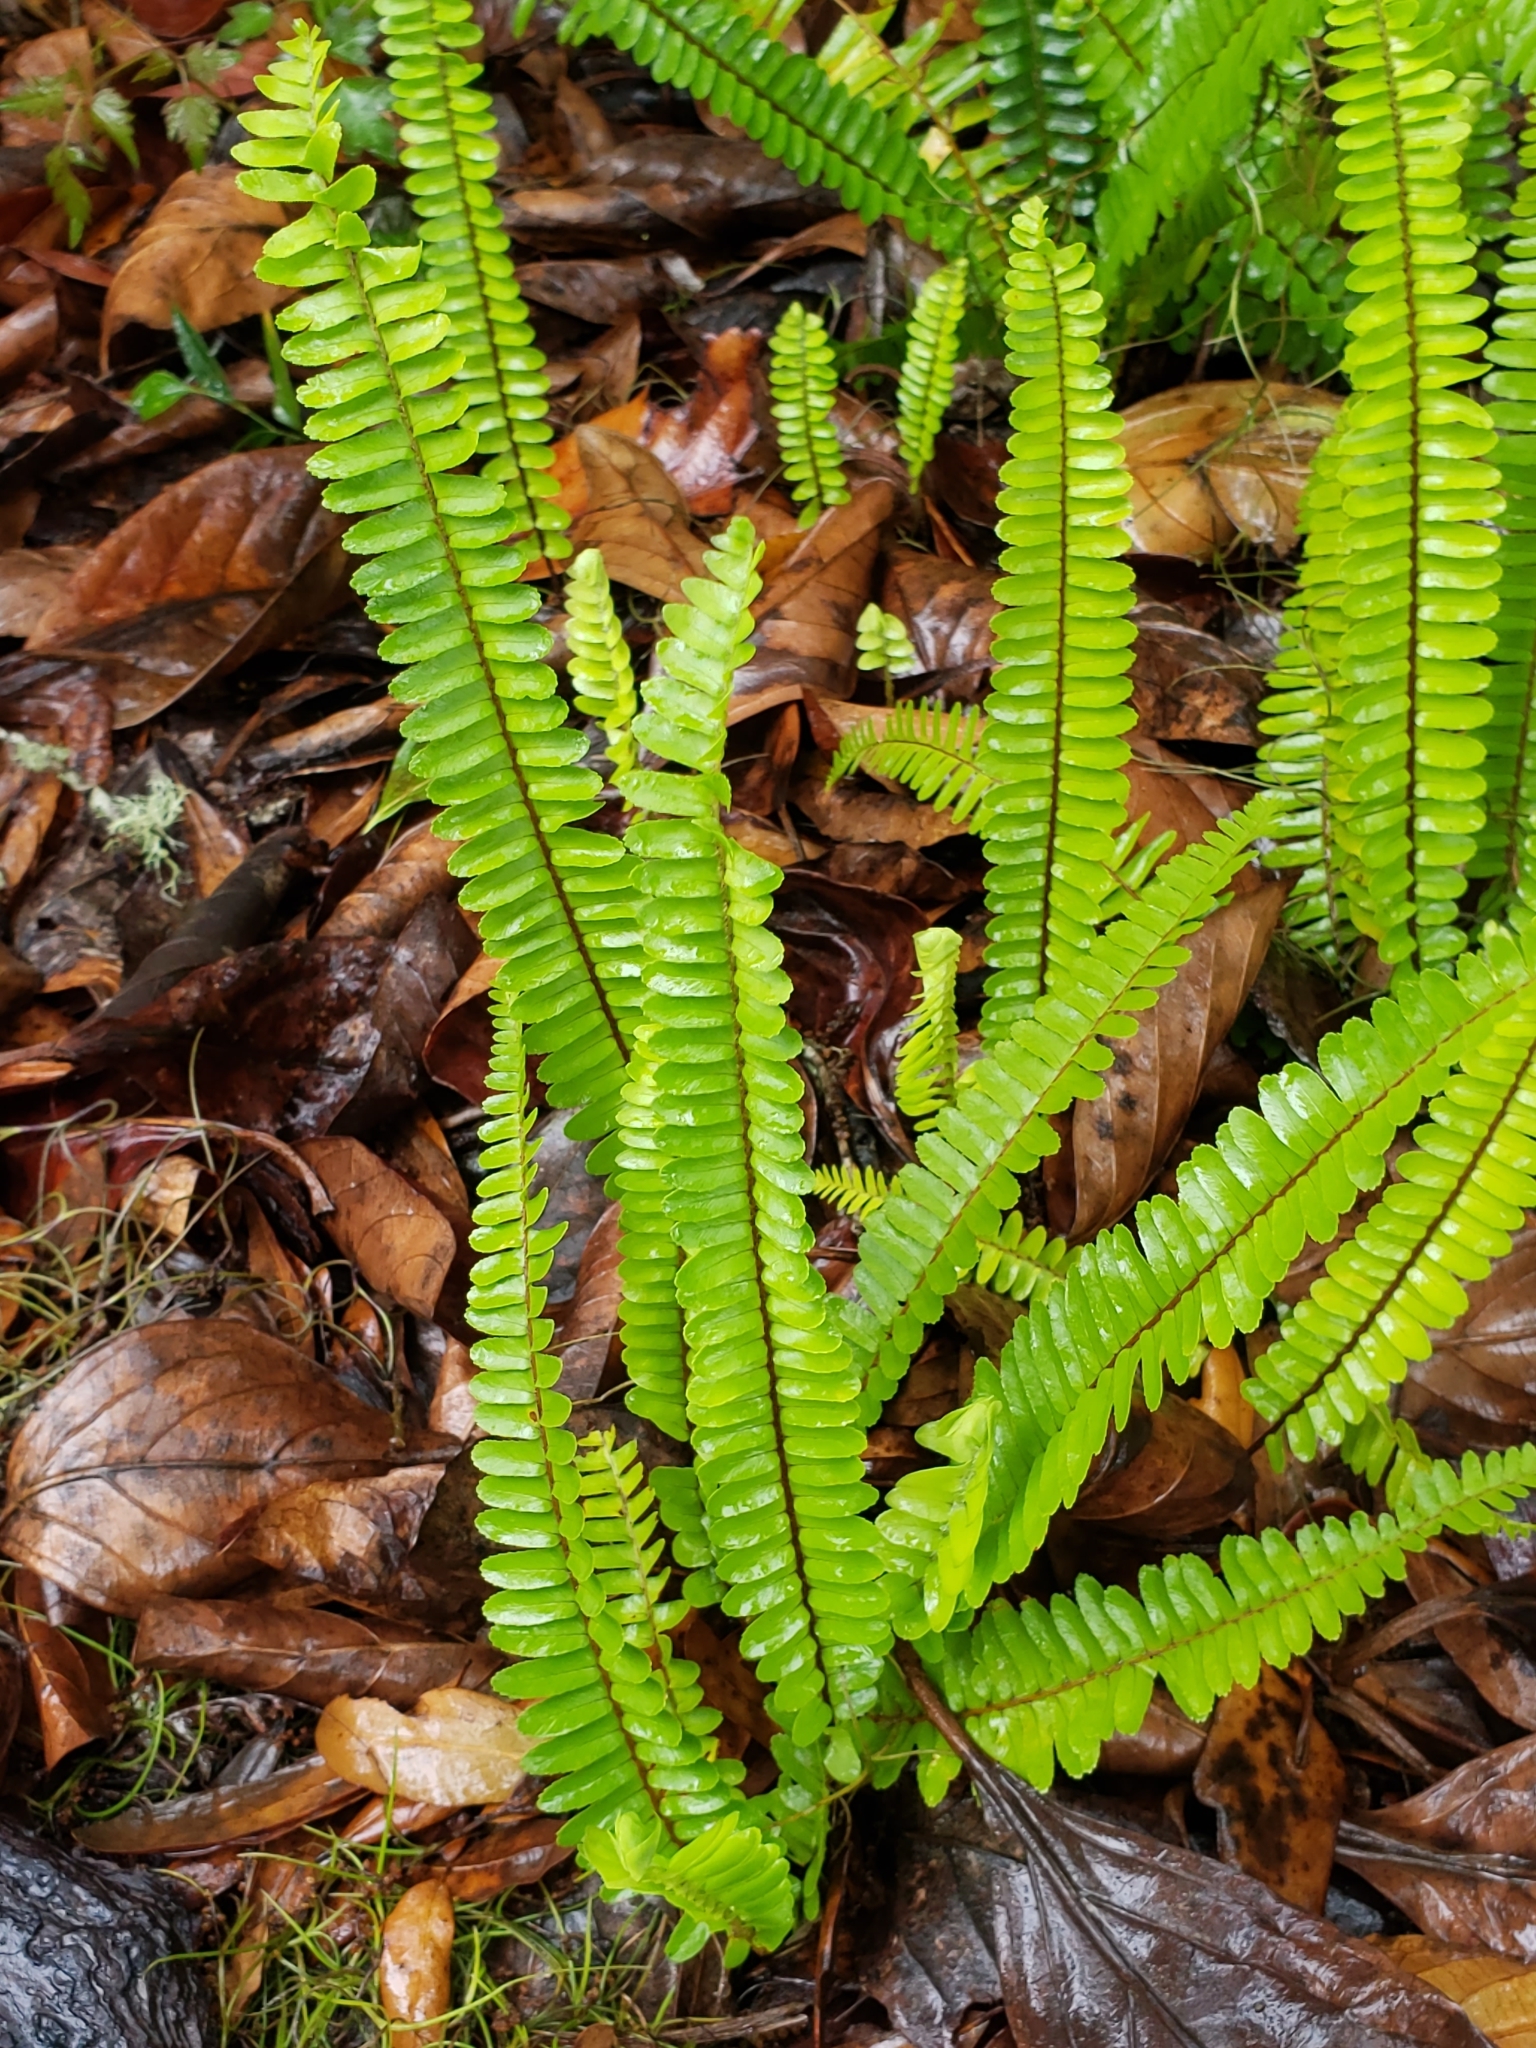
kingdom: Plantae
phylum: Tracheophyta
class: Polypodiopsida
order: Polypodiales
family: Polypodiaceae
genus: Pleopeltis
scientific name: Pleopeltis michauxiana
